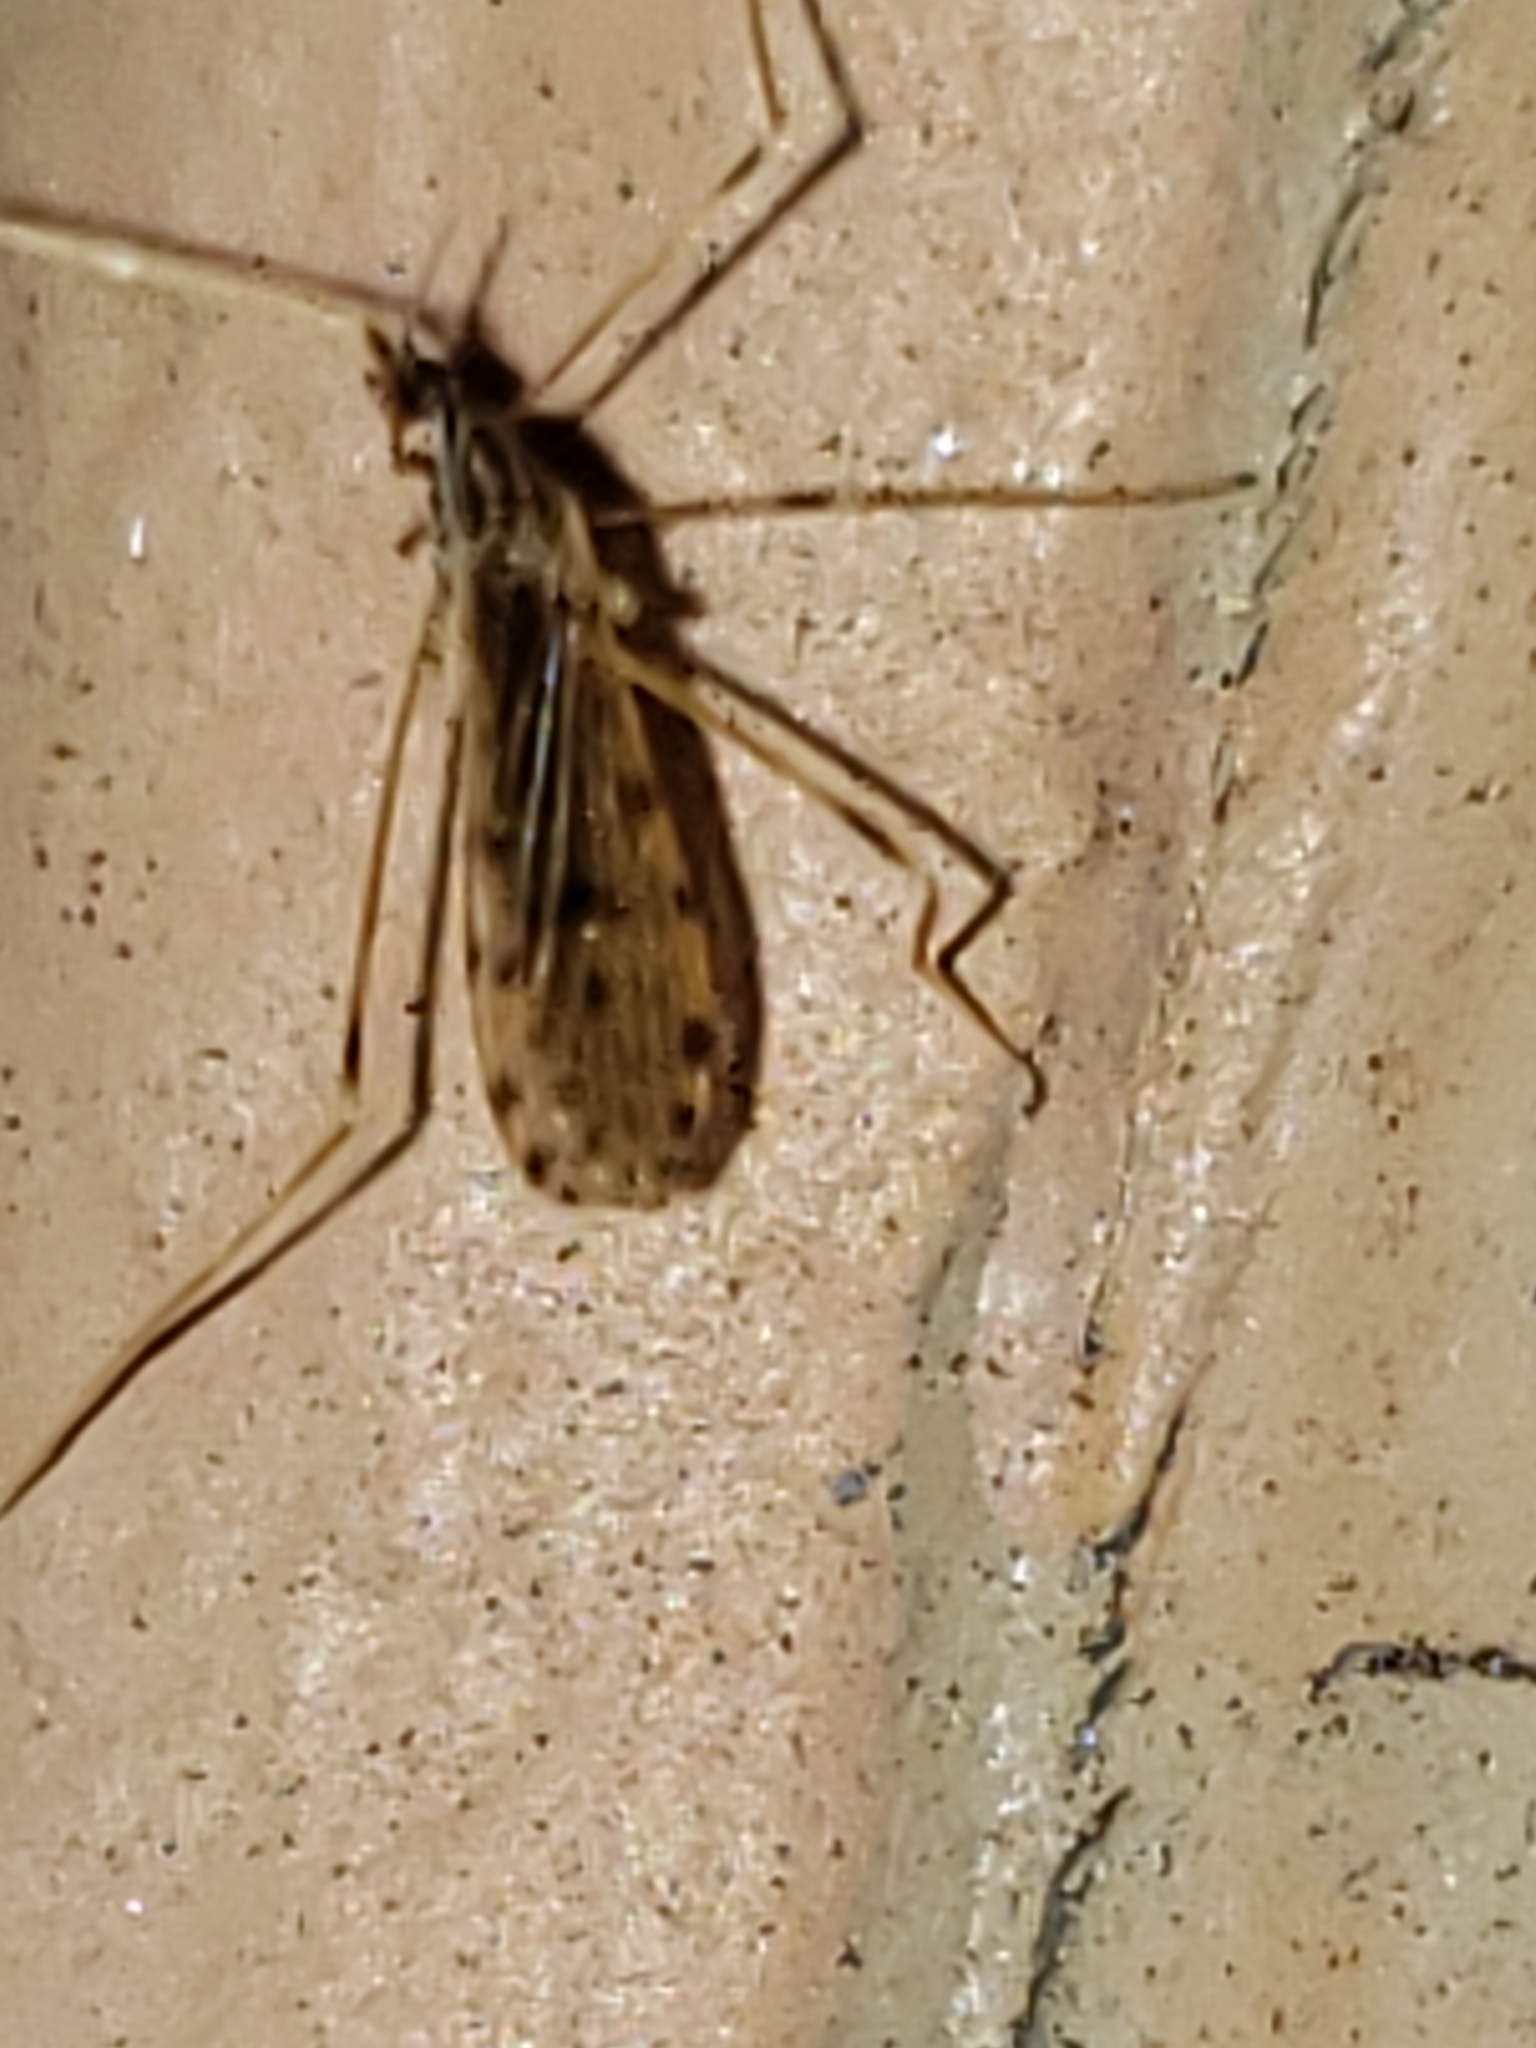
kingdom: Animalia
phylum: Arthropoda
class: Insecta
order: Diptera
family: Limoniidae
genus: Erioptera
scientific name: Erioptera parva
